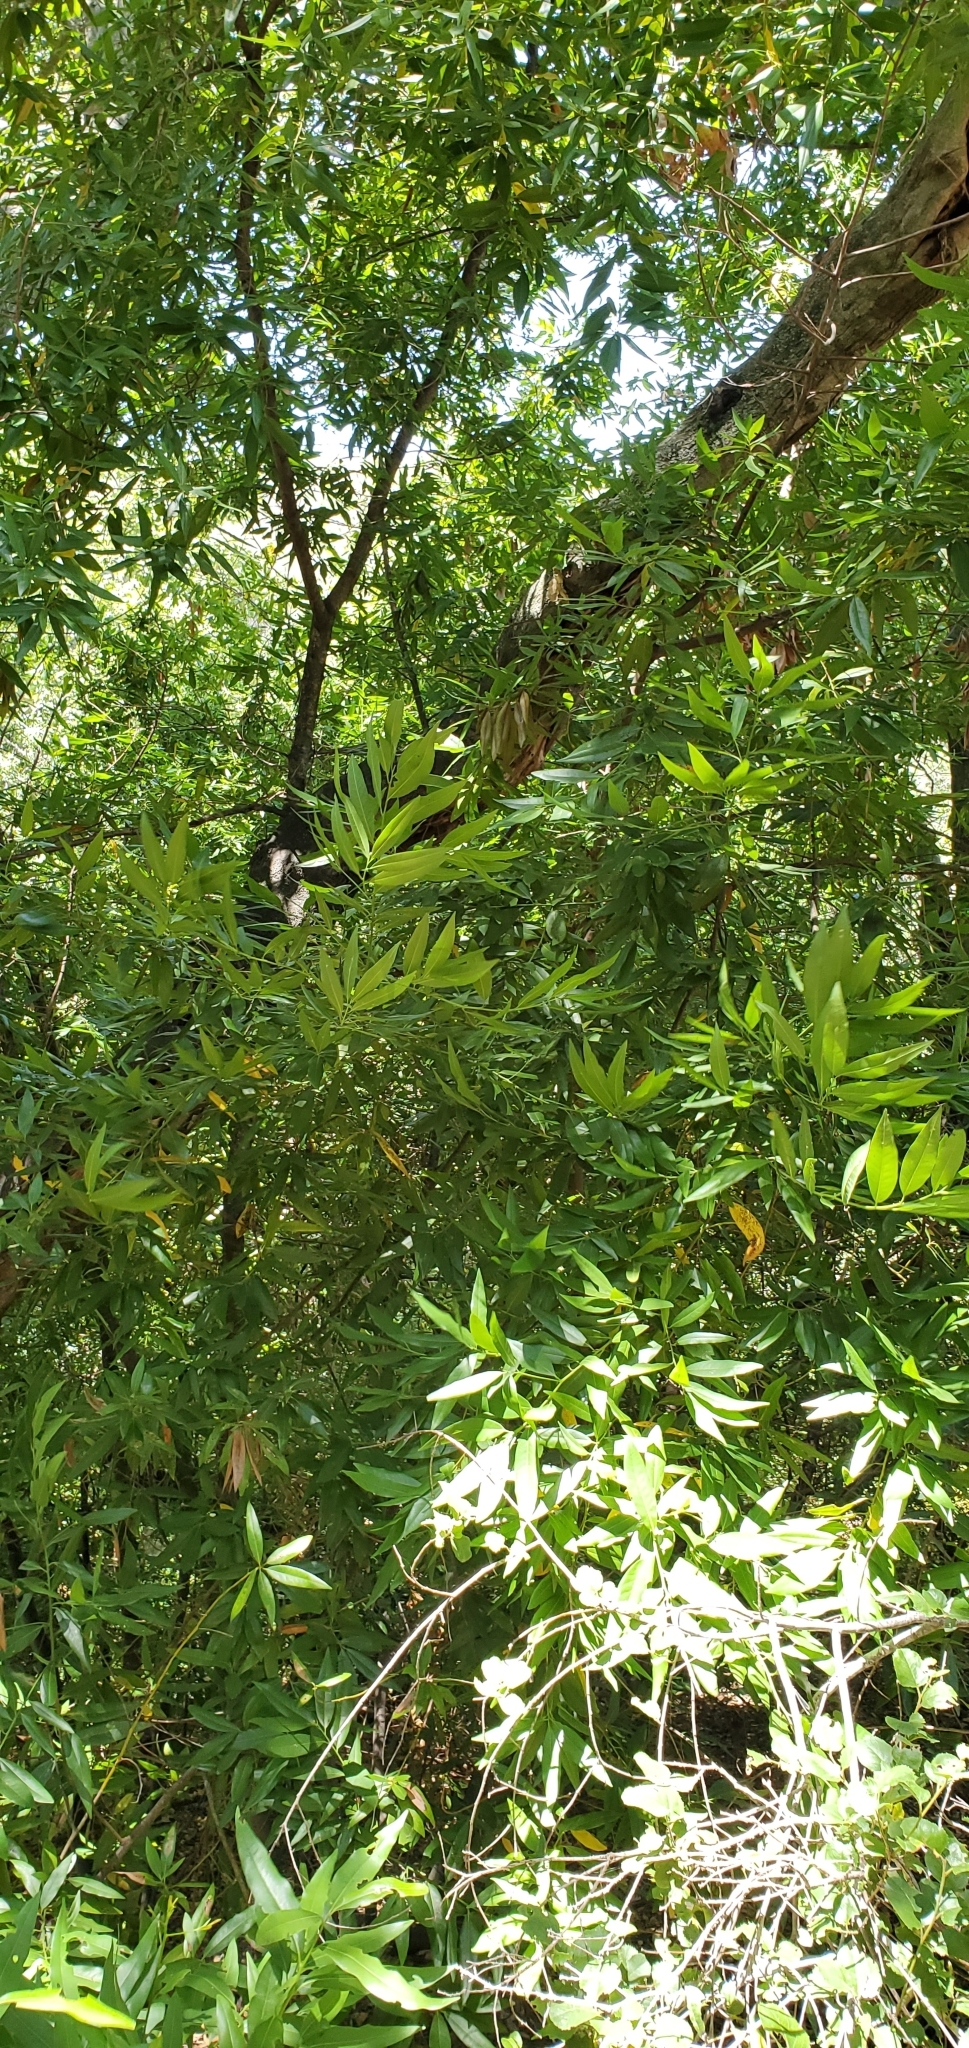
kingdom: Plantae
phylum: Tracheophyta
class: Magnoliopsida
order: Laurales
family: Lauraceae
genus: Umbellularia
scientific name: Umbellularia californica
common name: California bay
